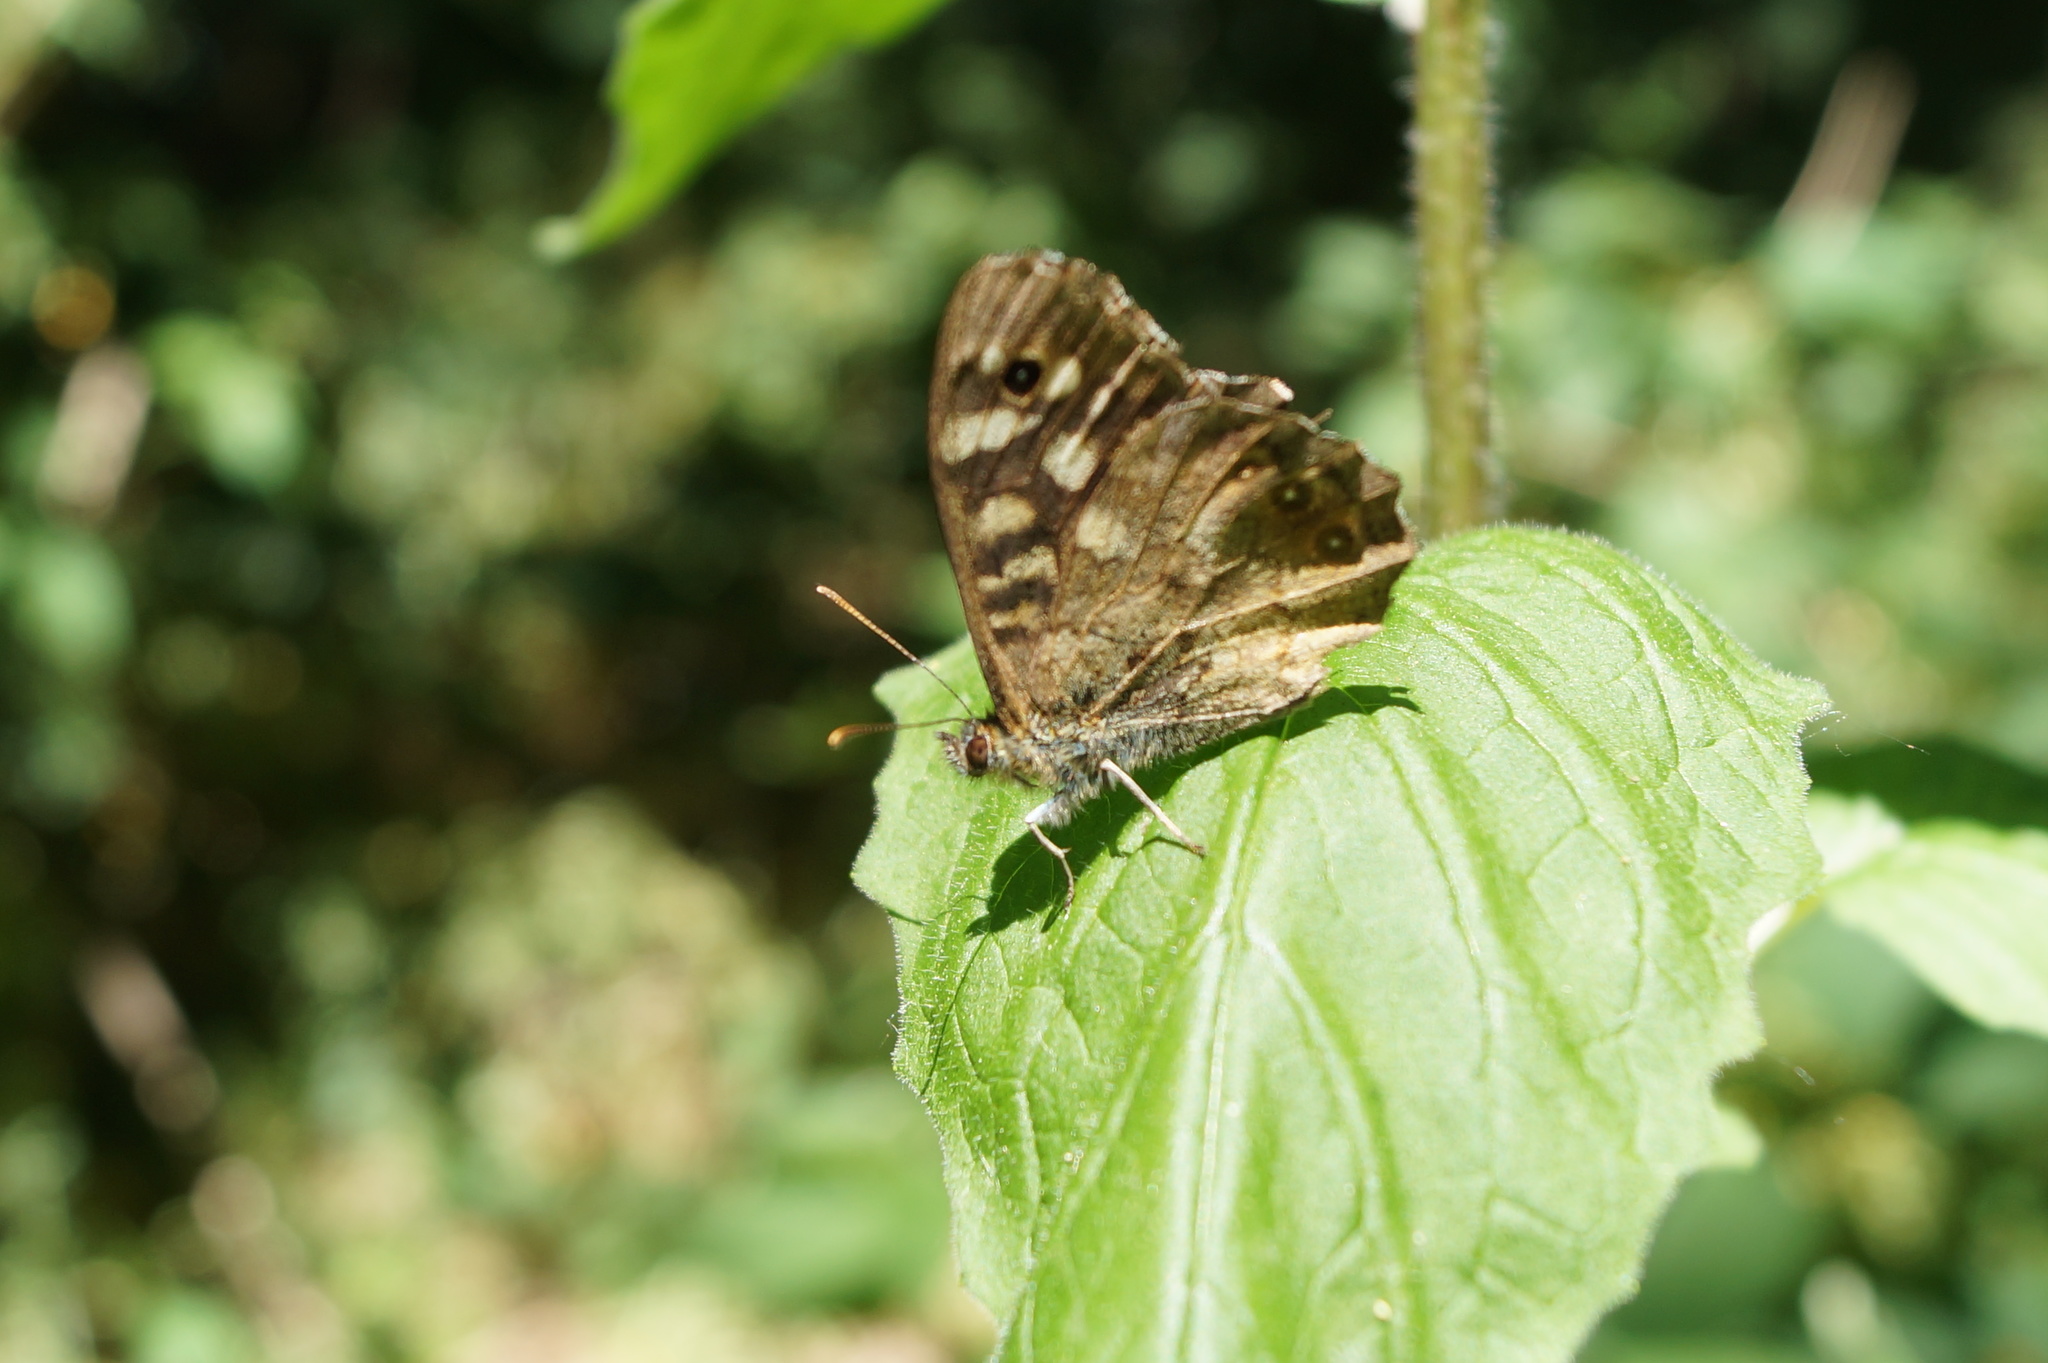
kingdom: Animalia
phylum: Arthropoda
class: Insecta
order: Lepidoptera
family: Nymphalidae
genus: Pararge
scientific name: Pararge aegeria
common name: Speckled wood
